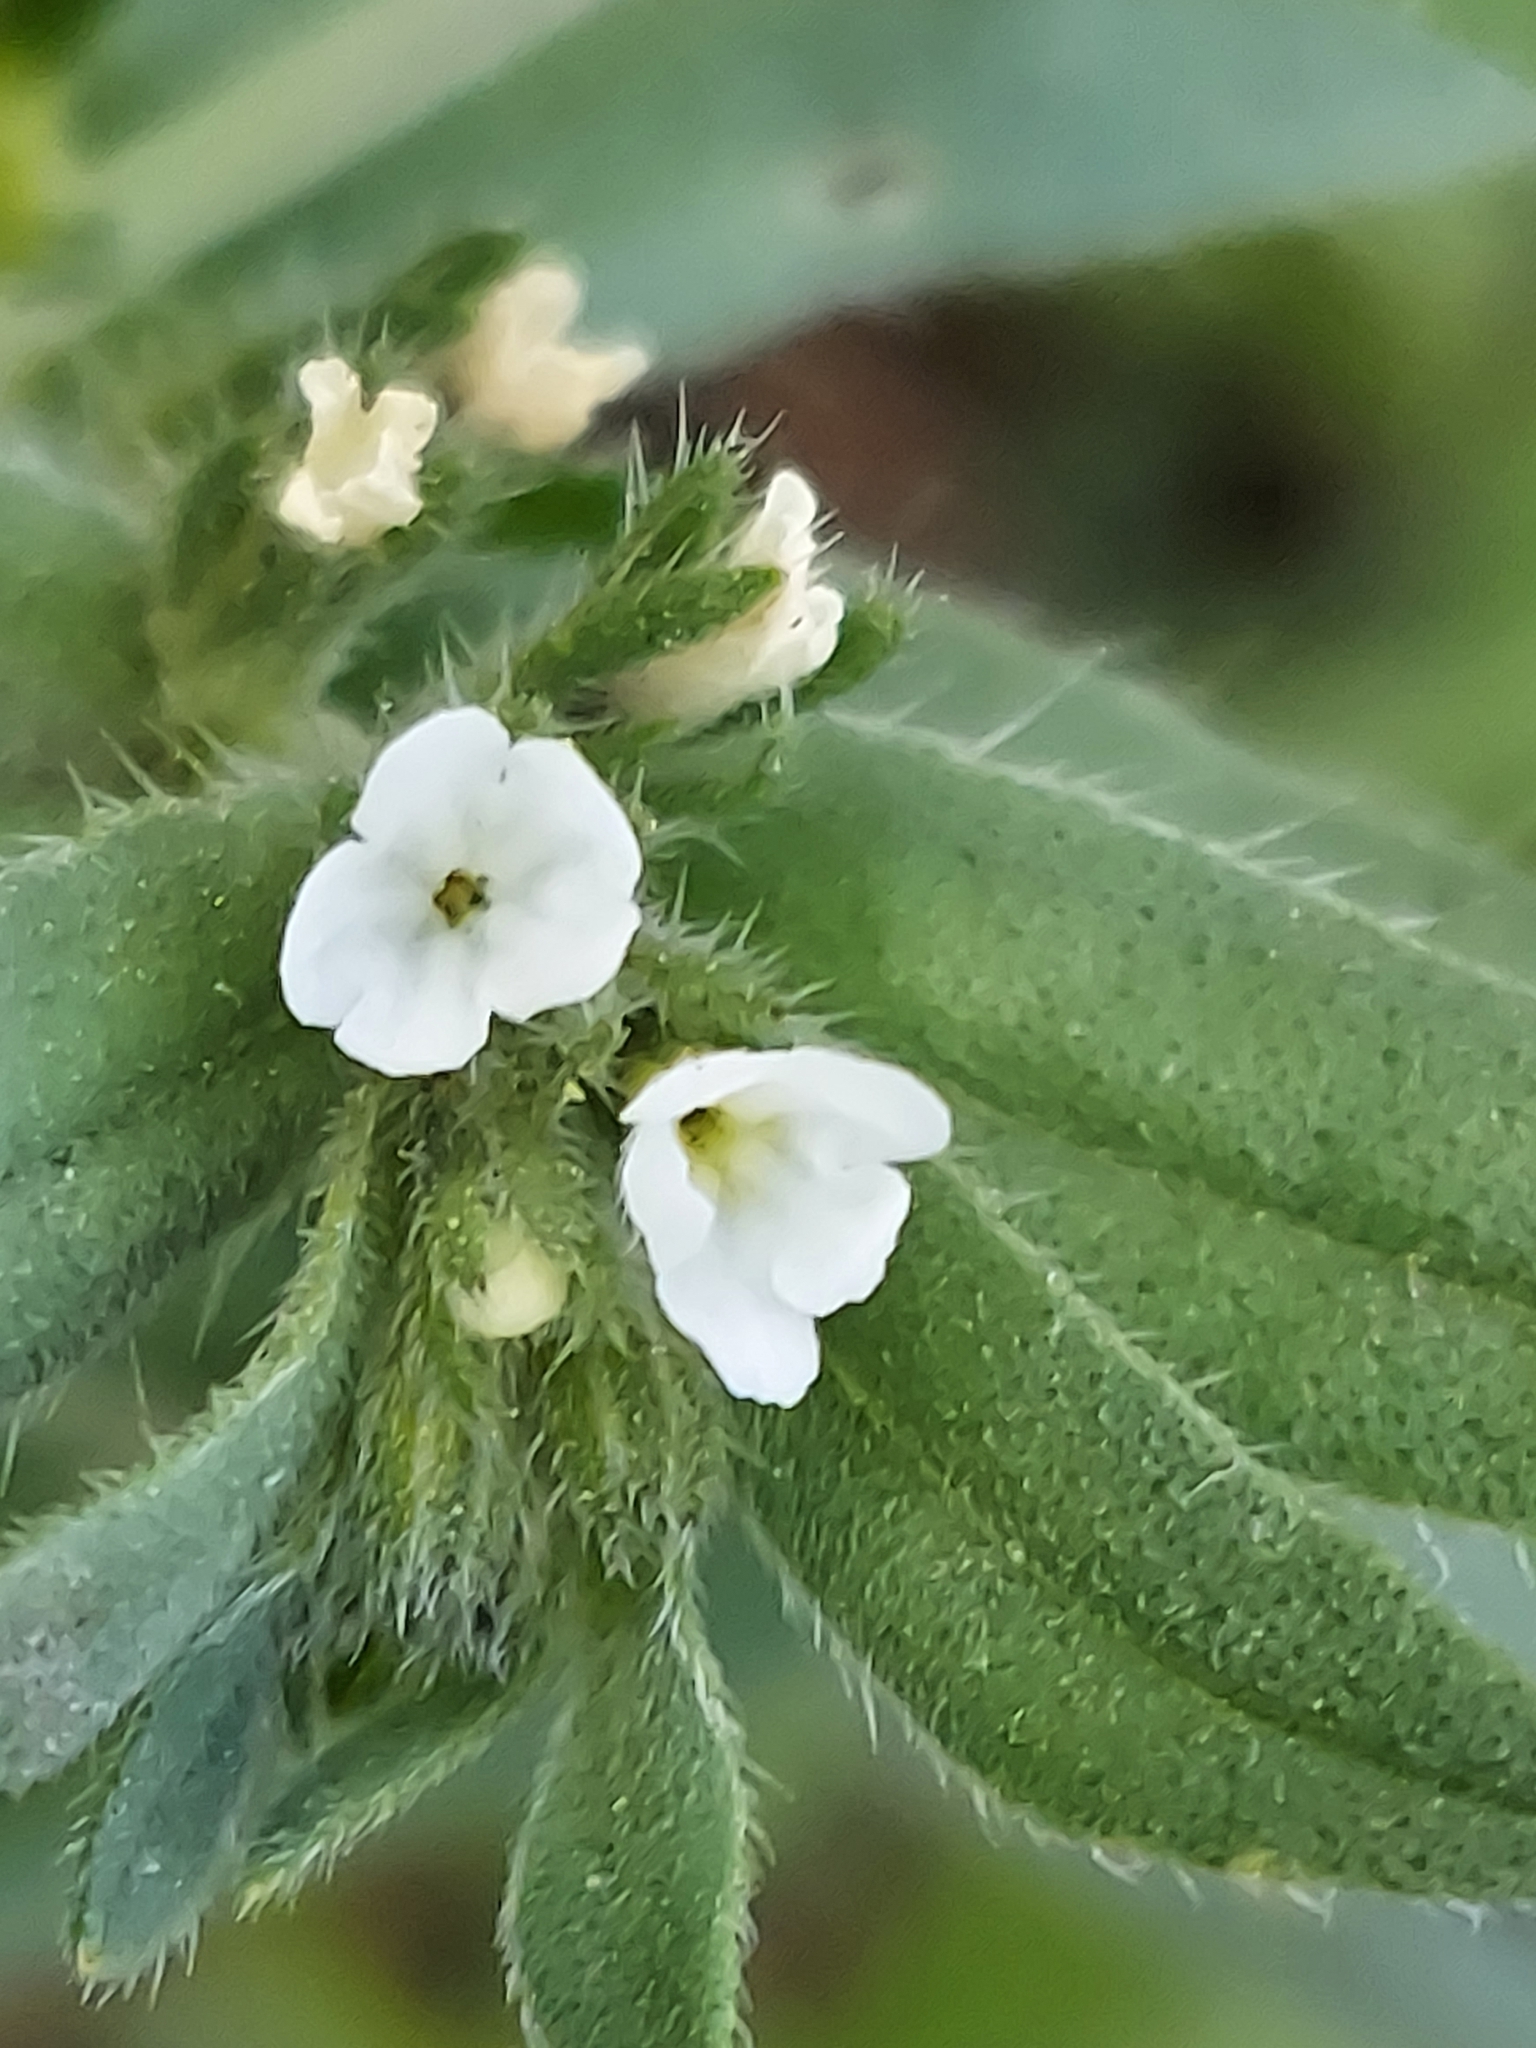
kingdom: Plantae
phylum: Tracheophyta
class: Magnoliopsida
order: Boraginales
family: Boraginaceae
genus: Buglossoides
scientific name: Buglossoides arvensis
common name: Corn gromwell
